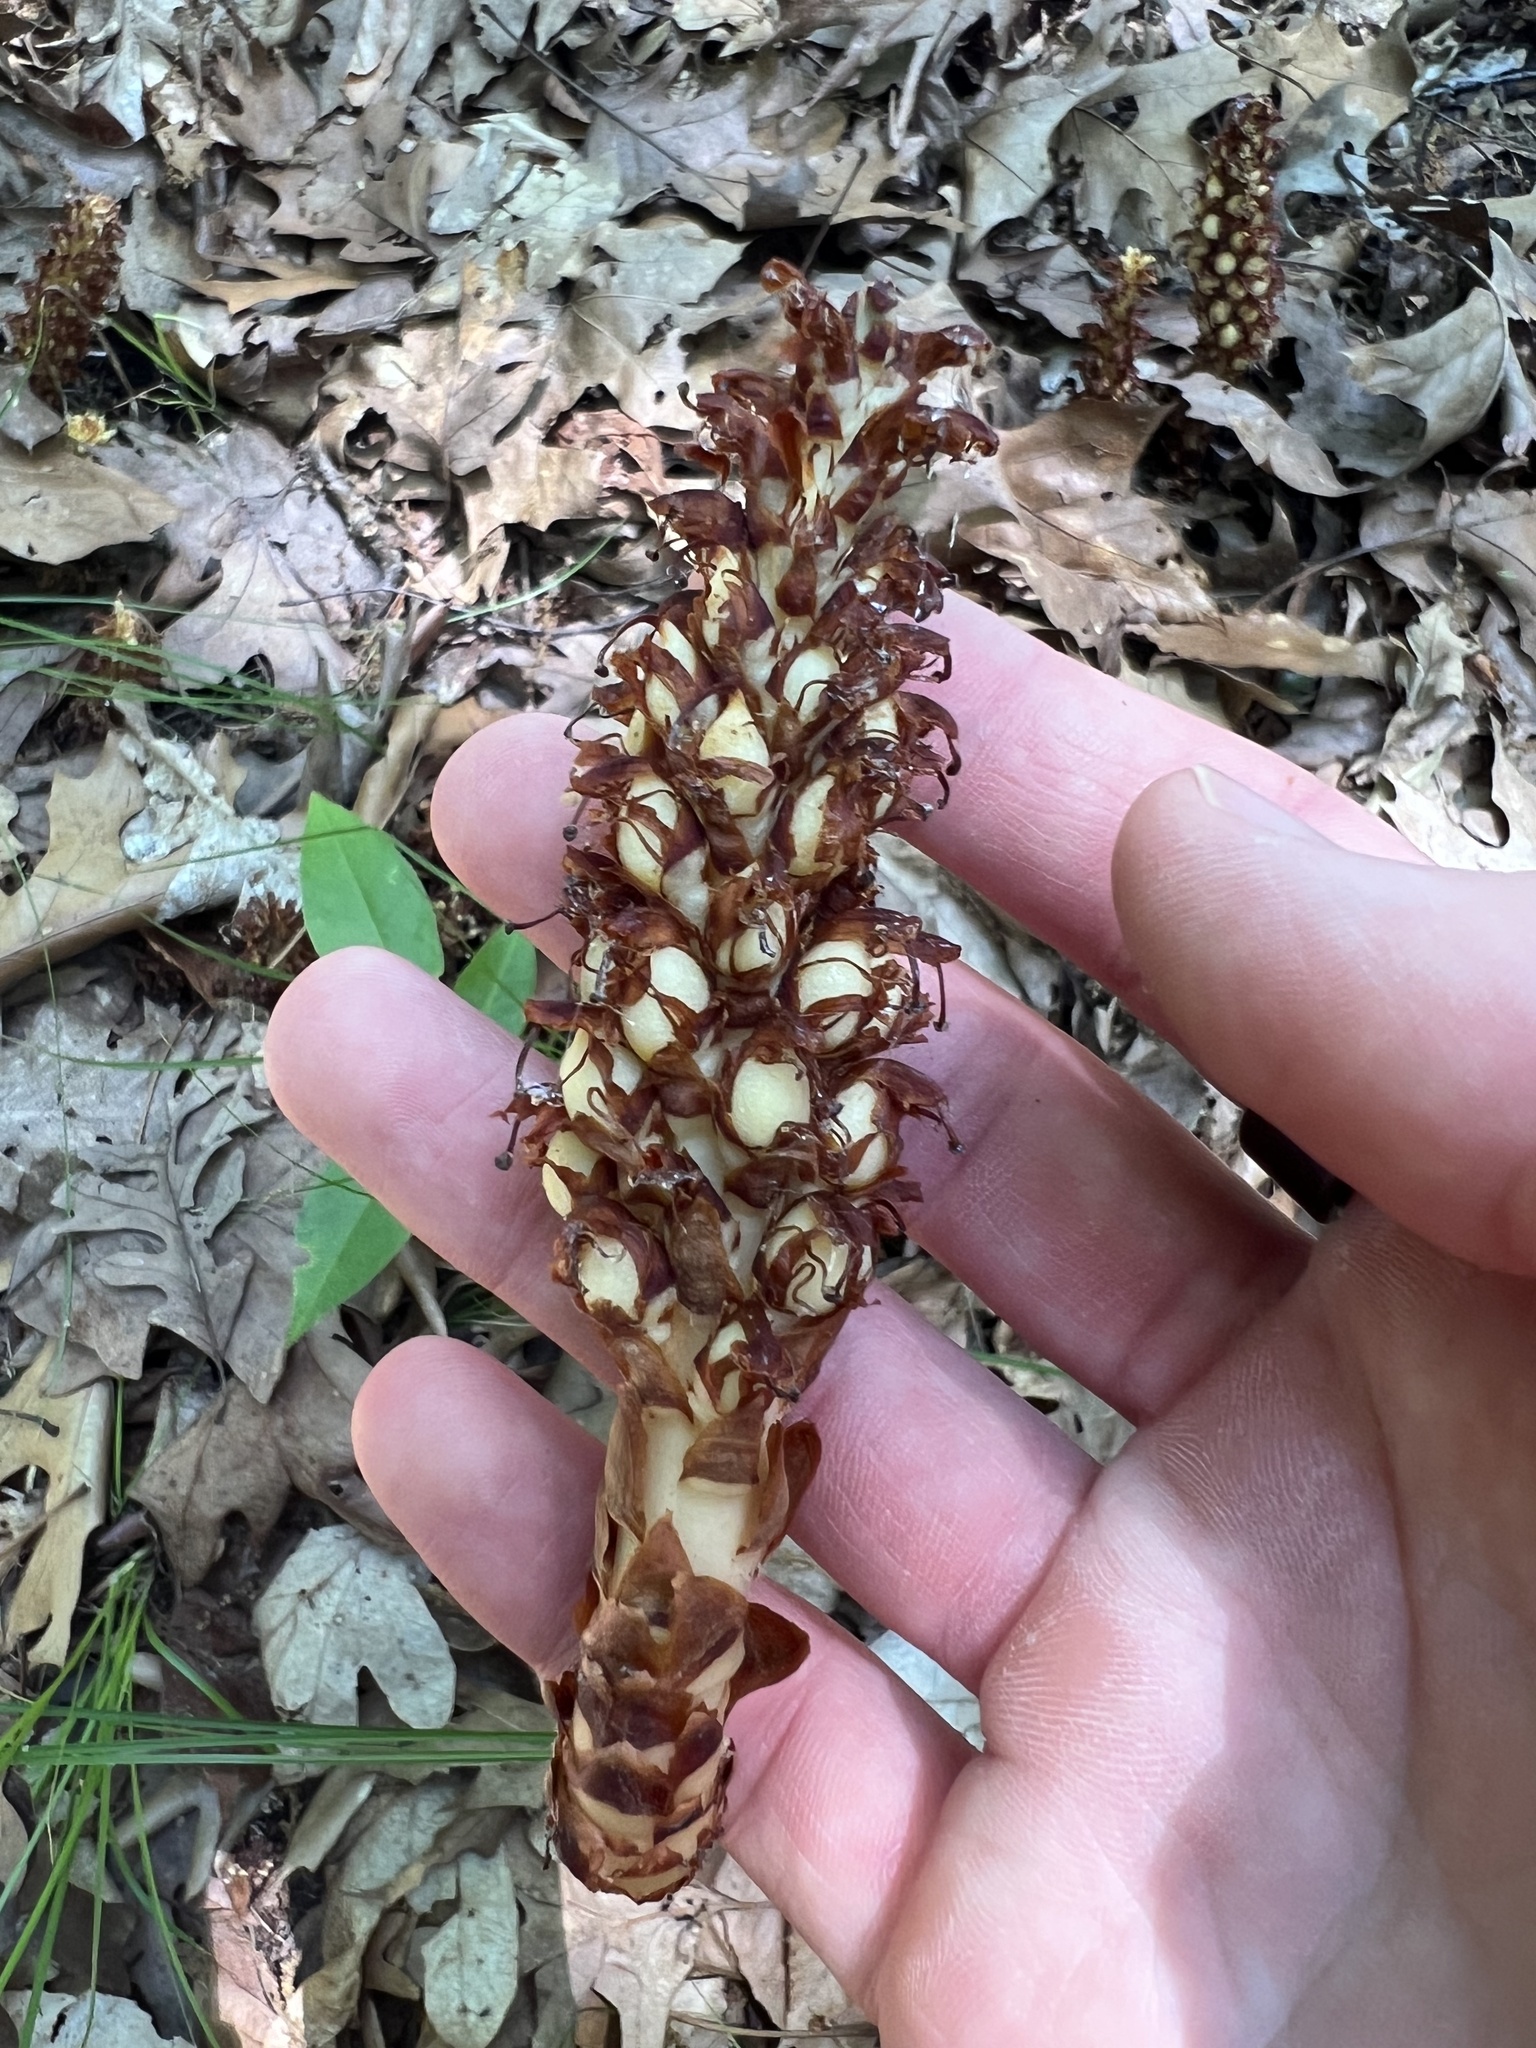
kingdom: Plantae
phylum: Tracheophyta
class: Magnoliopsida
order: Lamiales
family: Orobanchaceae
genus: Conopholis
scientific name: Conopholis americana
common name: American cancer-root
